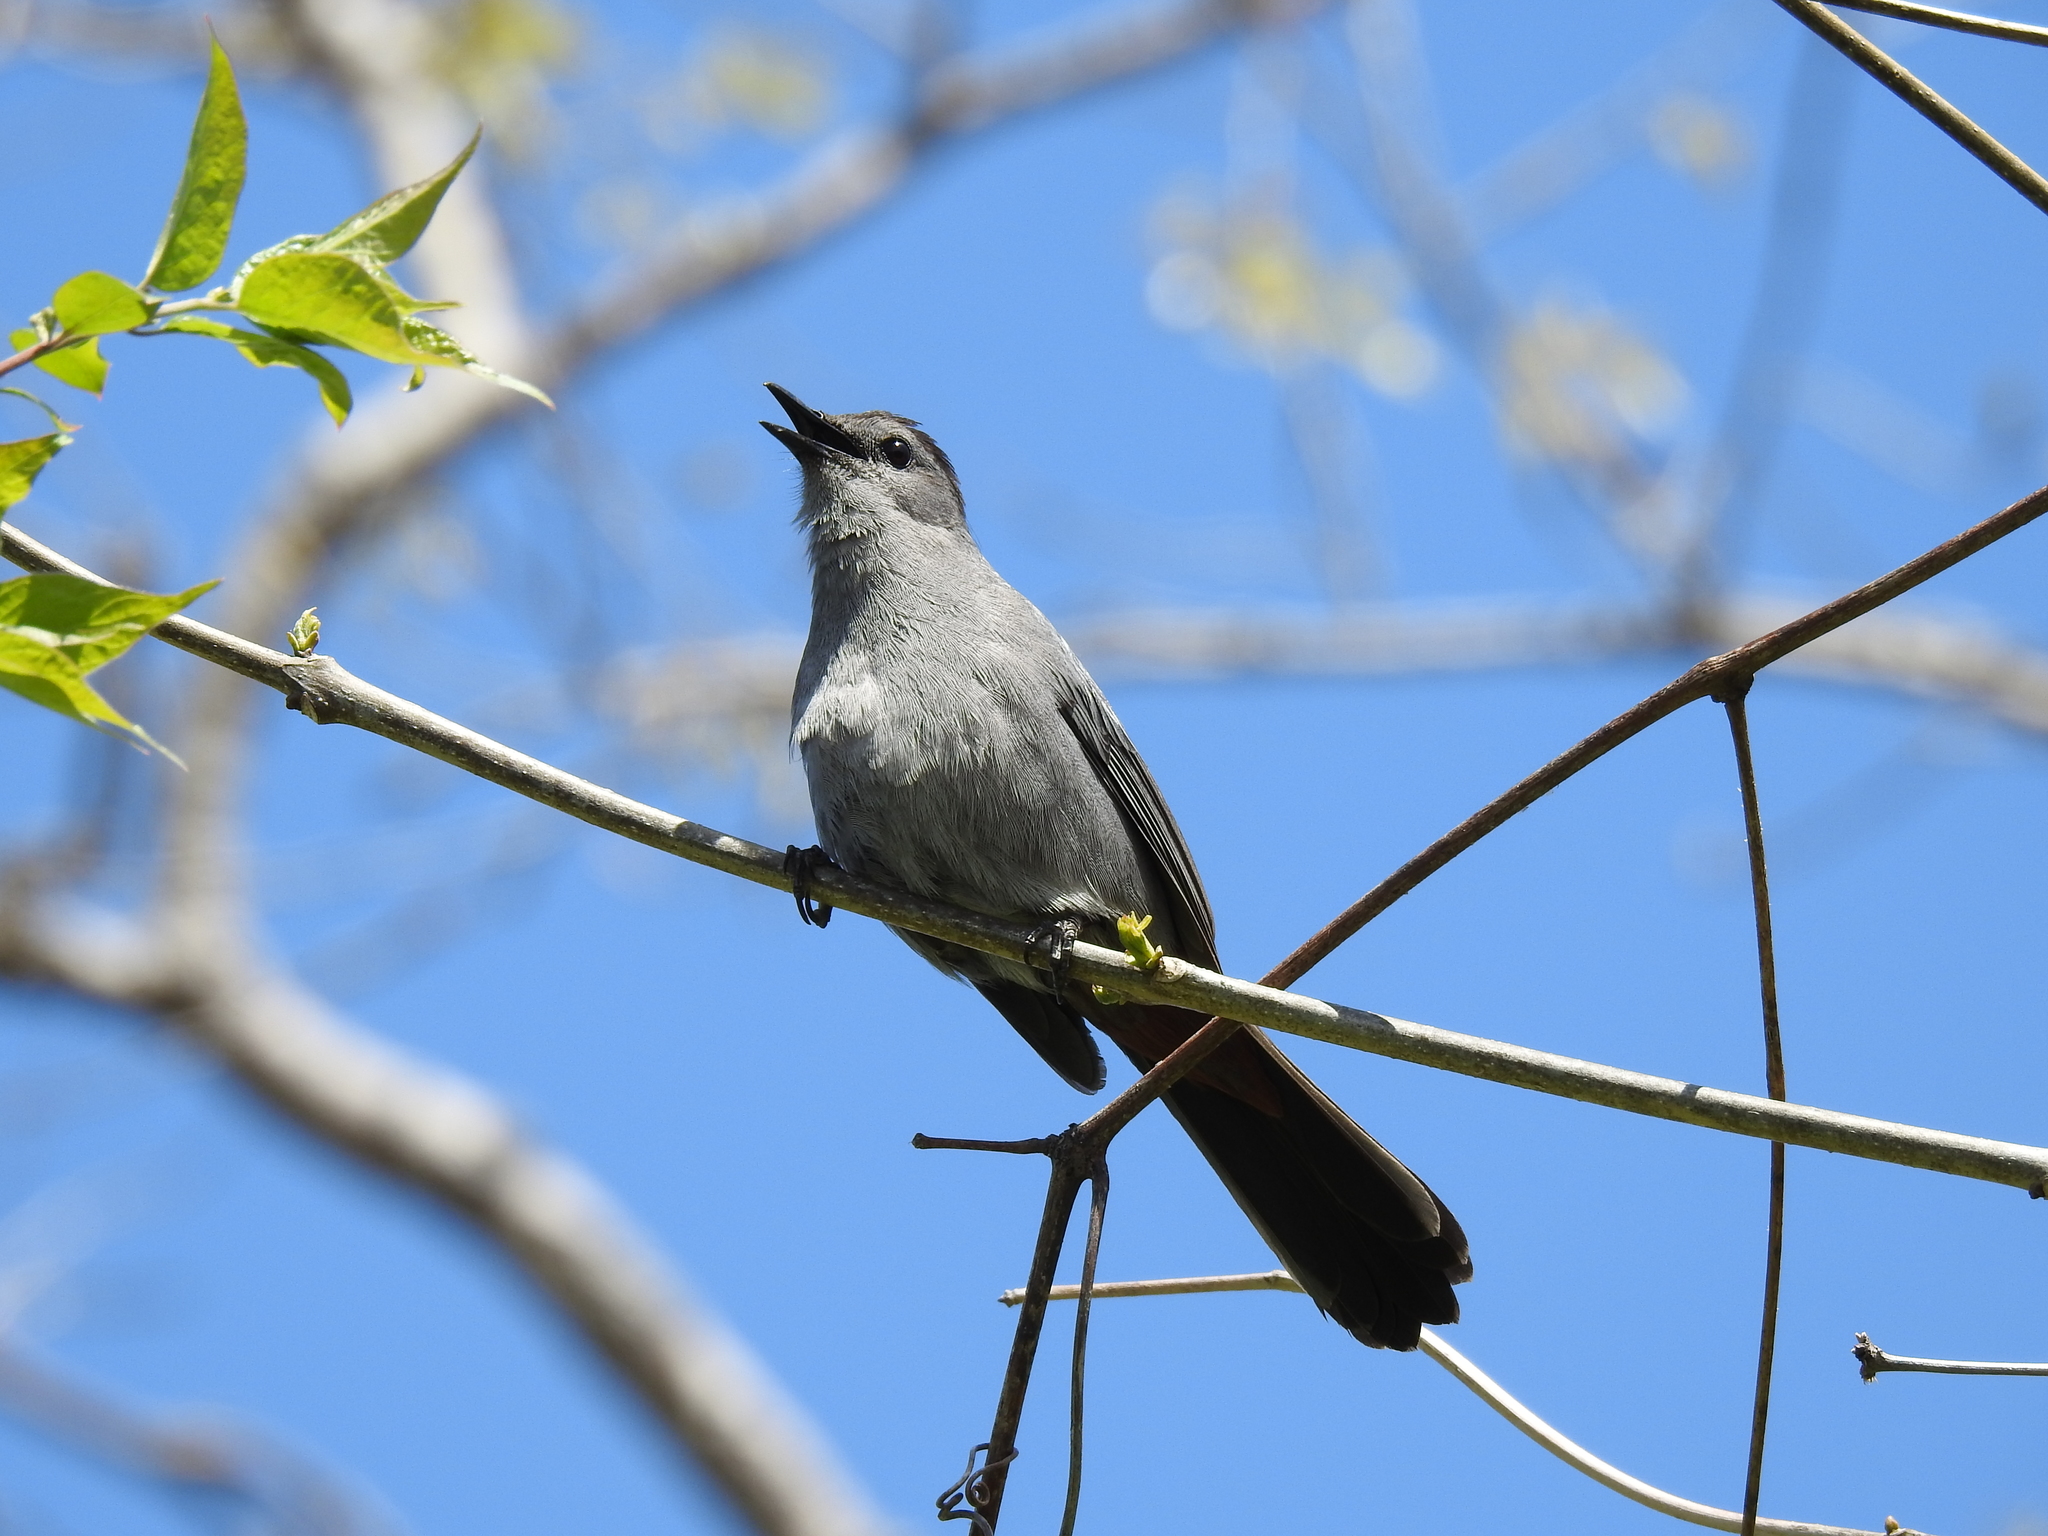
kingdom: Animalia
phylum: Chordata
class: Aves
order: Passeriformes
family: Mimidae
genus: Dumetella
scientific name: Dumetella carolinensis
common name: Gray catbird
